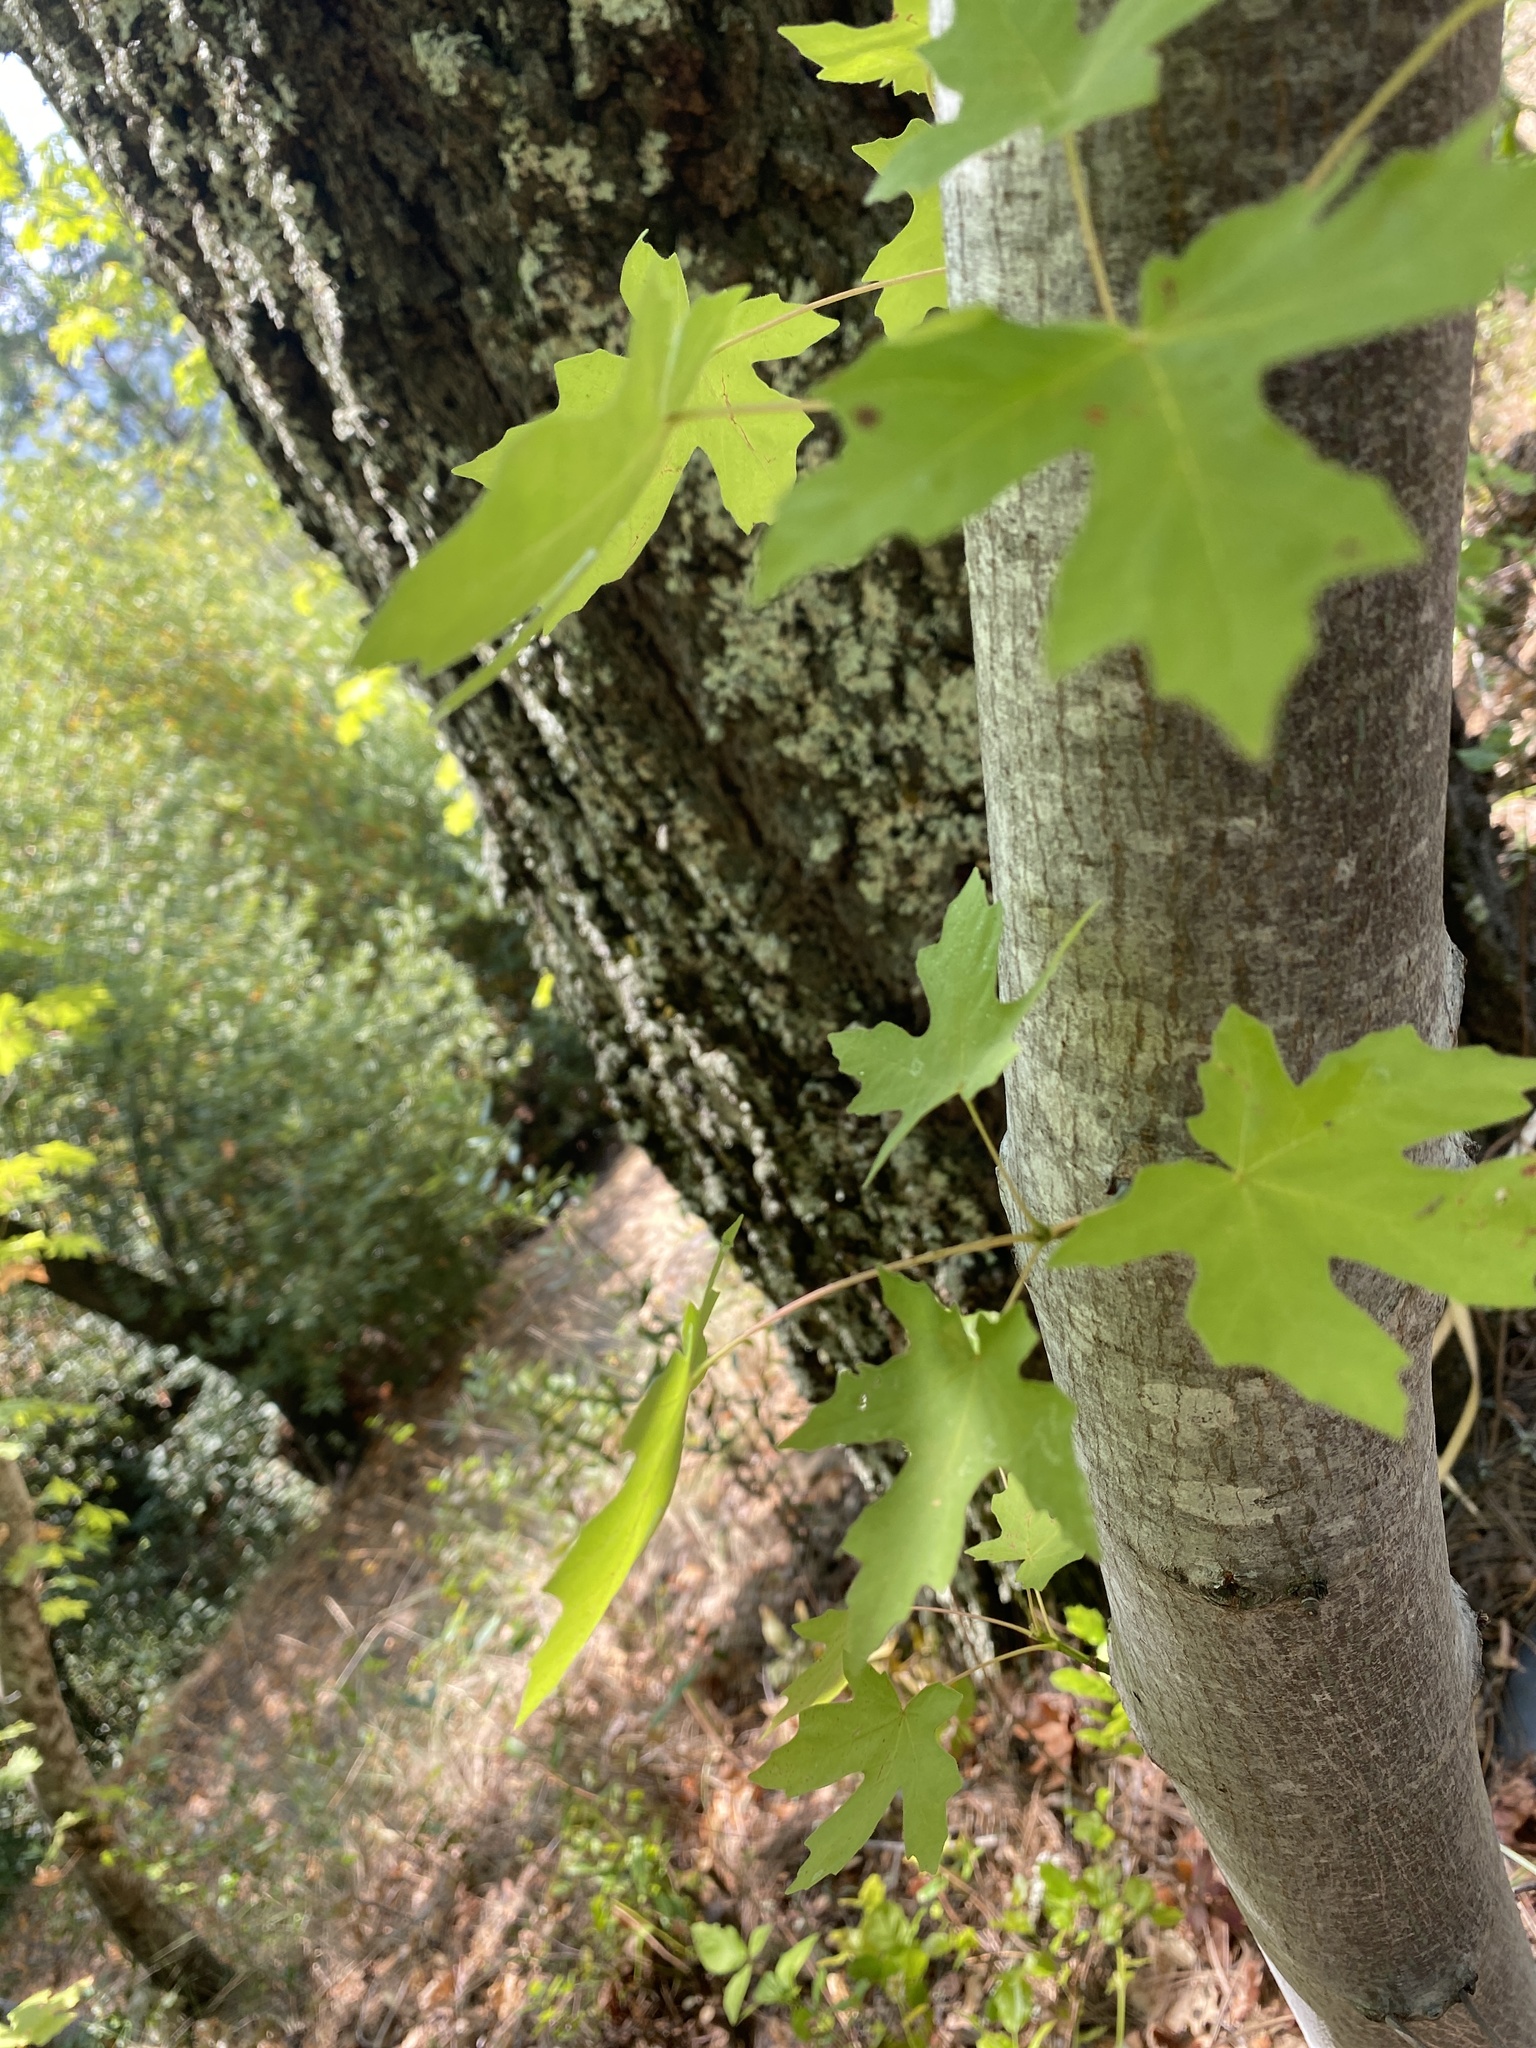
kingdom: Plantae
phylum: Tracheophyta
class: Magnoliopsida
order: Sapindales
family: Sapindaceae
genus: Acer
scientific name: Acer macrophyllum
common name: Oregon maple
